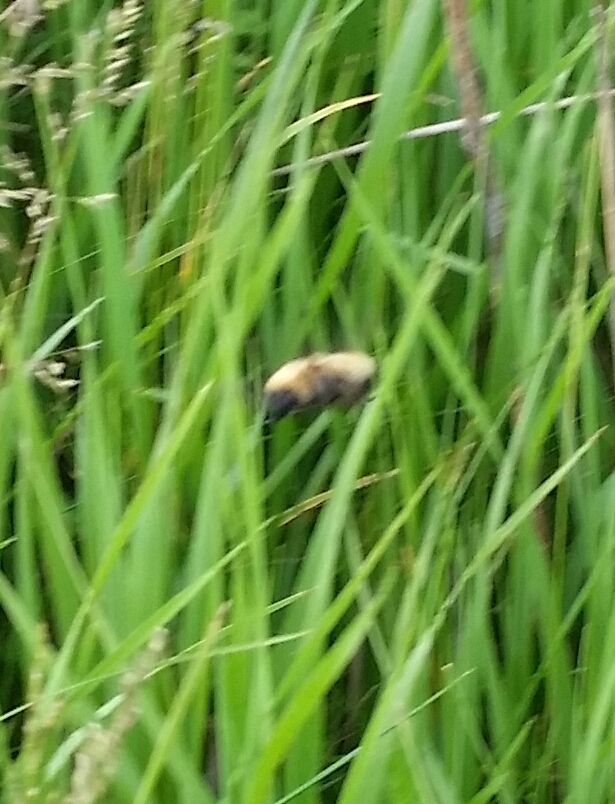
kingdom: Animalia
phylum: Arthropoda
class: Insecta
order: Hymenoptera
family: Apidae
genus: Bombus
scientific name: Bombus
